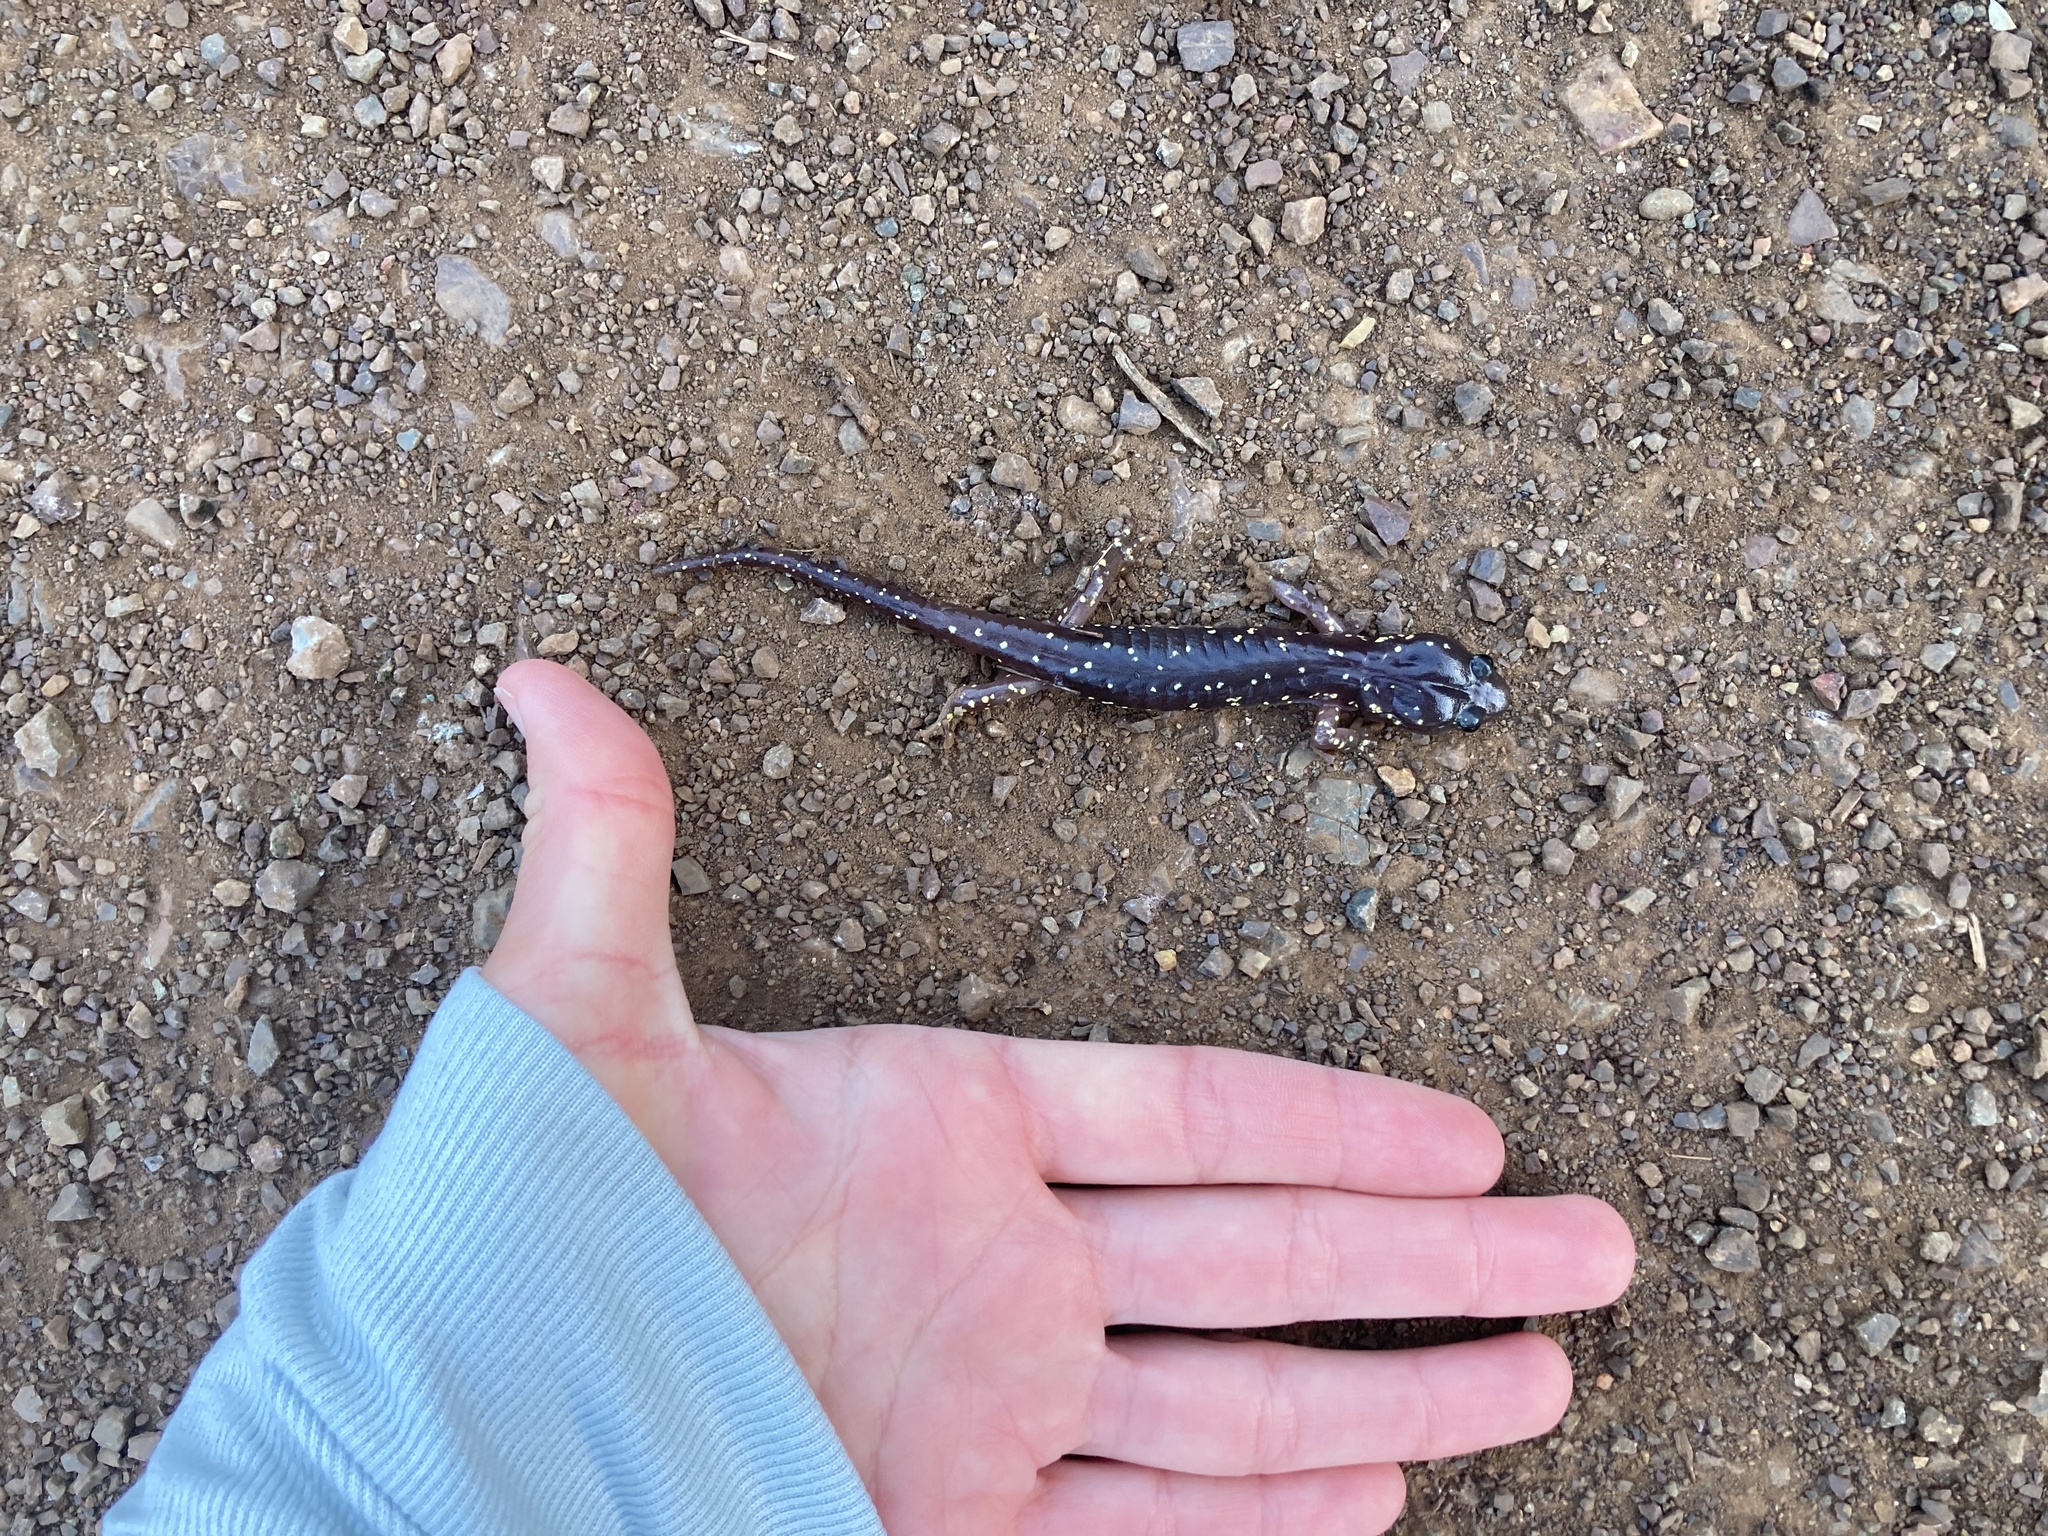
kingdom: Animalia
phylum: Chordata
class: Amphibia
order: Caudata
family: Plethodontidae
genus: Aneides
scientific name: Aneides lugubris
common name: Arboreal salamander
